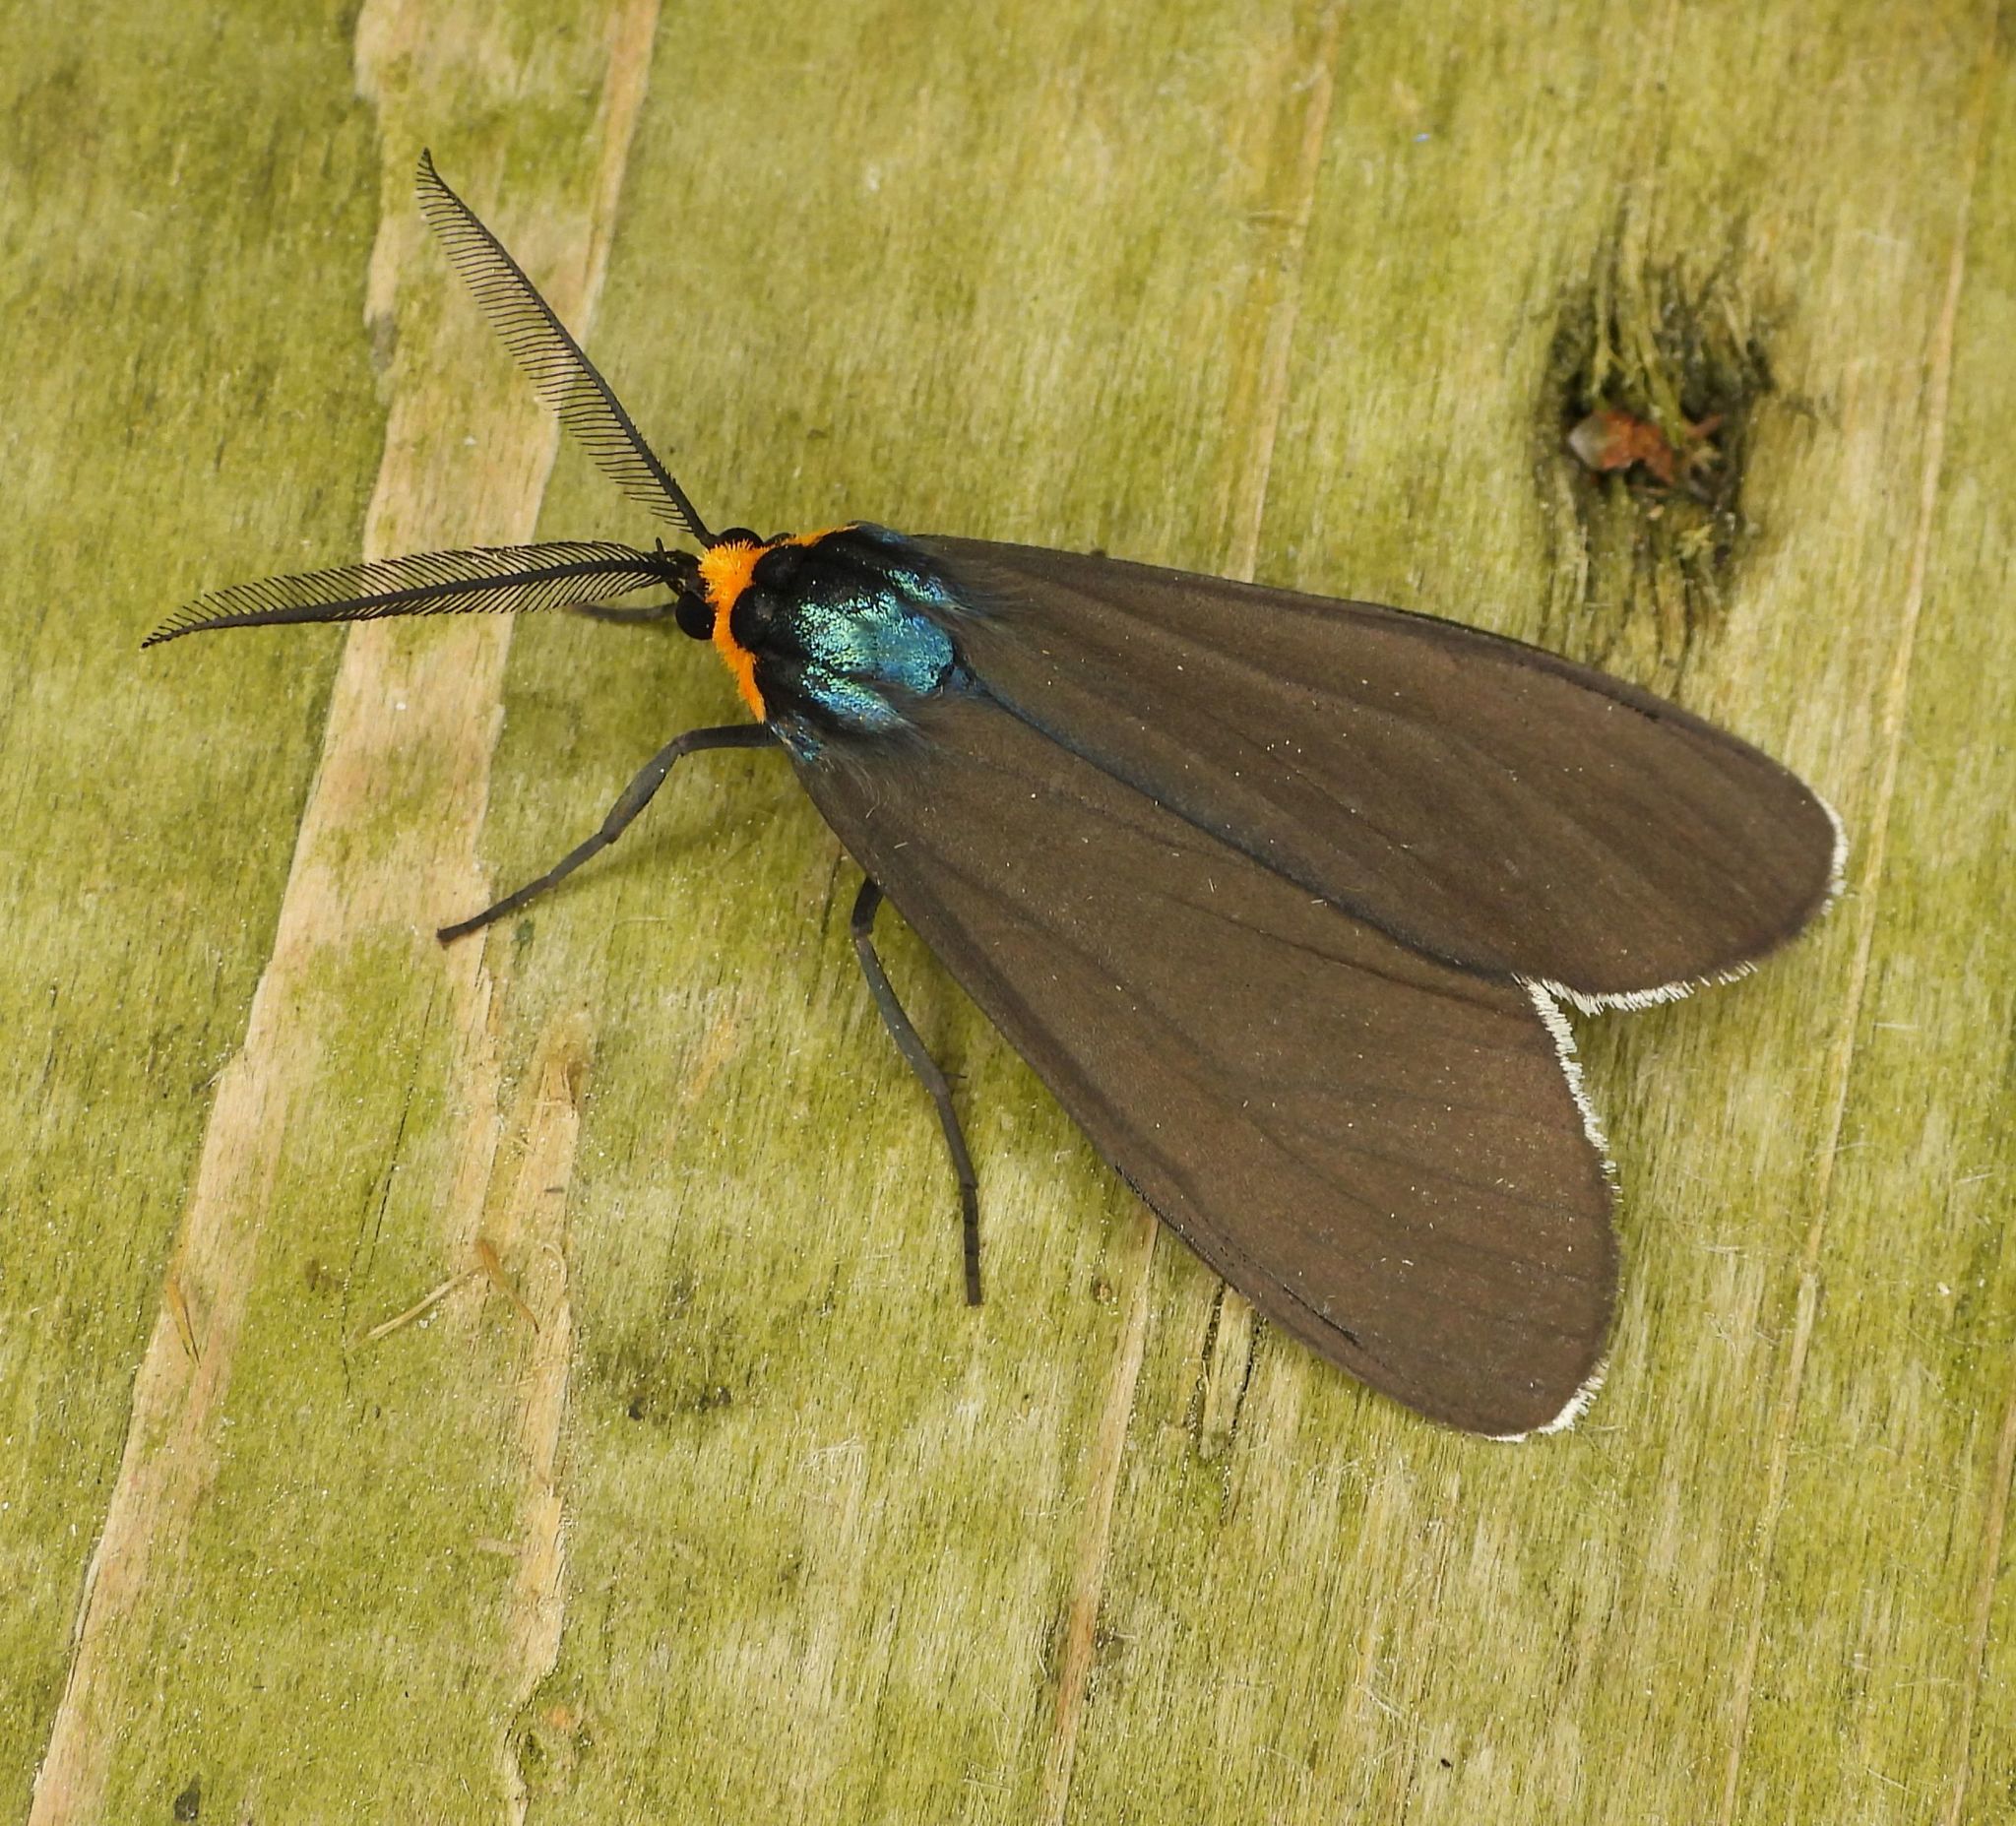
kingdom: Animalia
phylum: Arthropoda
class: Insecta
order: Lepidoptera
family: Erebidae
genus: Ctenucha
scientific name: Ctenucha virginica
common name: Virginia ctenucha moth
